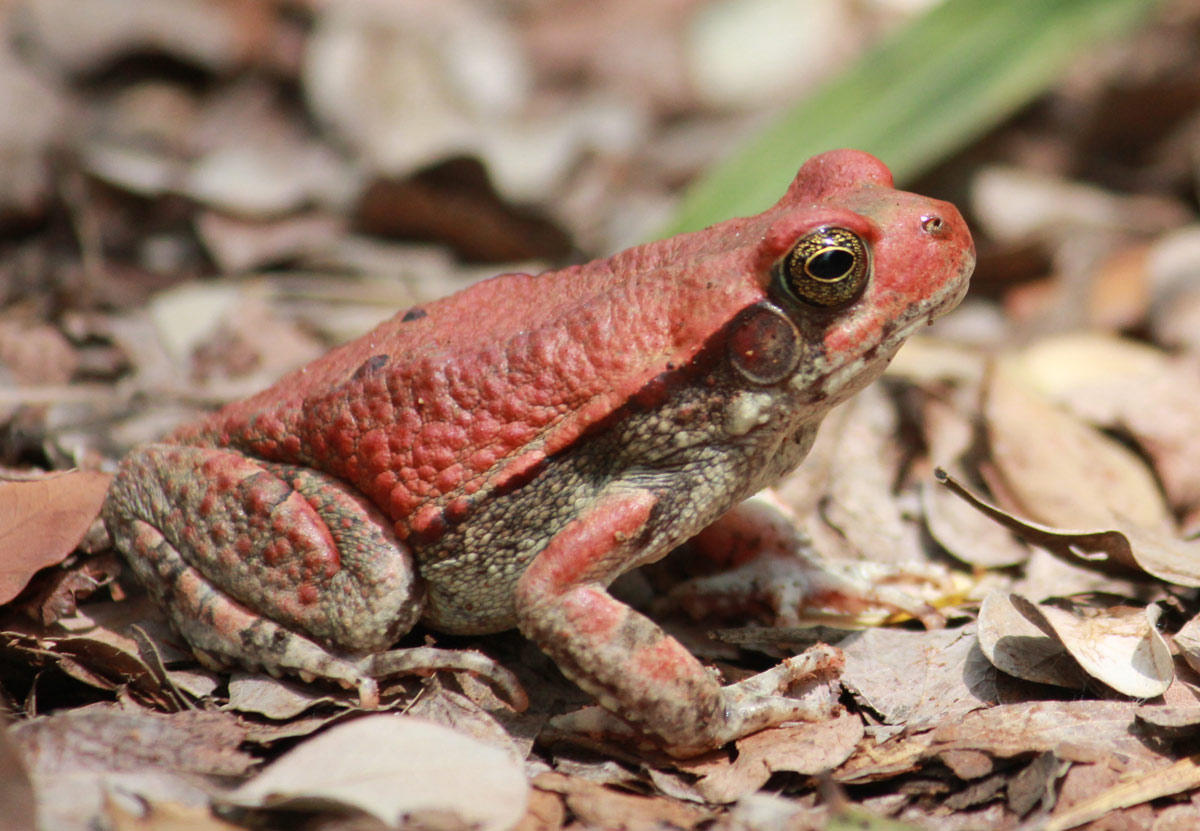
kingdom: Animalia
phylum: Chordata
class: Amphibia
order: Anura
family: Bufonidae
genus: Schismaderma
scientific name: Schismaderma carens
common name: African split-skin toad
